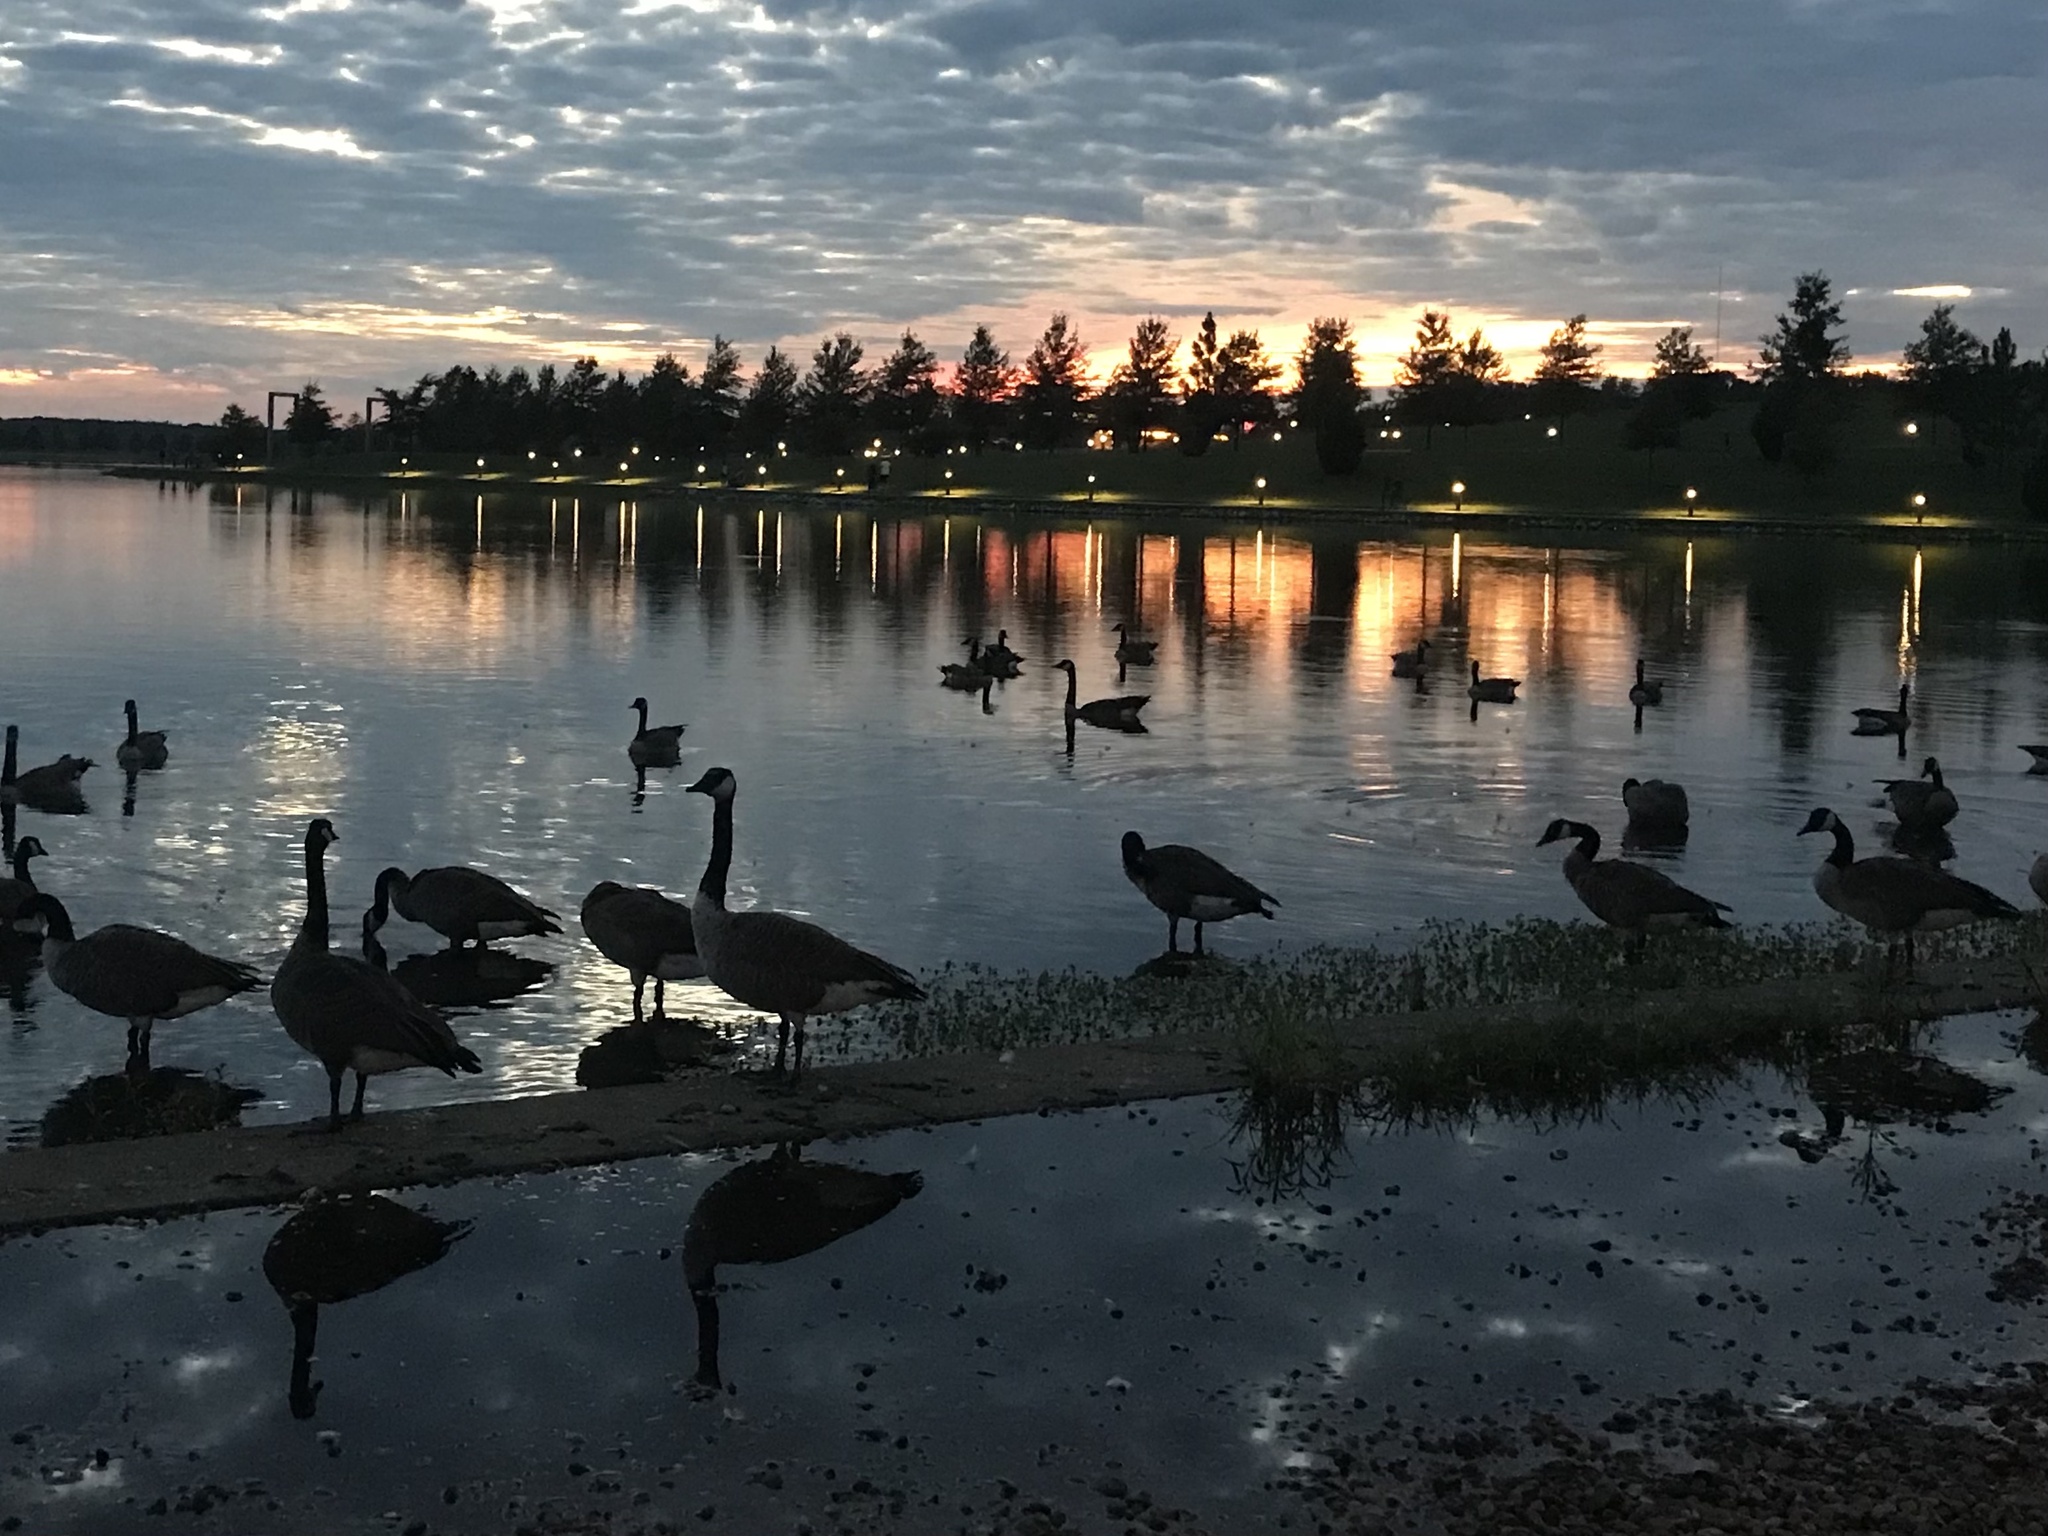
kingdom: Animalia
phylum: Chordata
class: Aves
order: Anseriformes
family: Anatidae
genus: Branta
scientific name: Branta canadensis
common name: Canada goose
